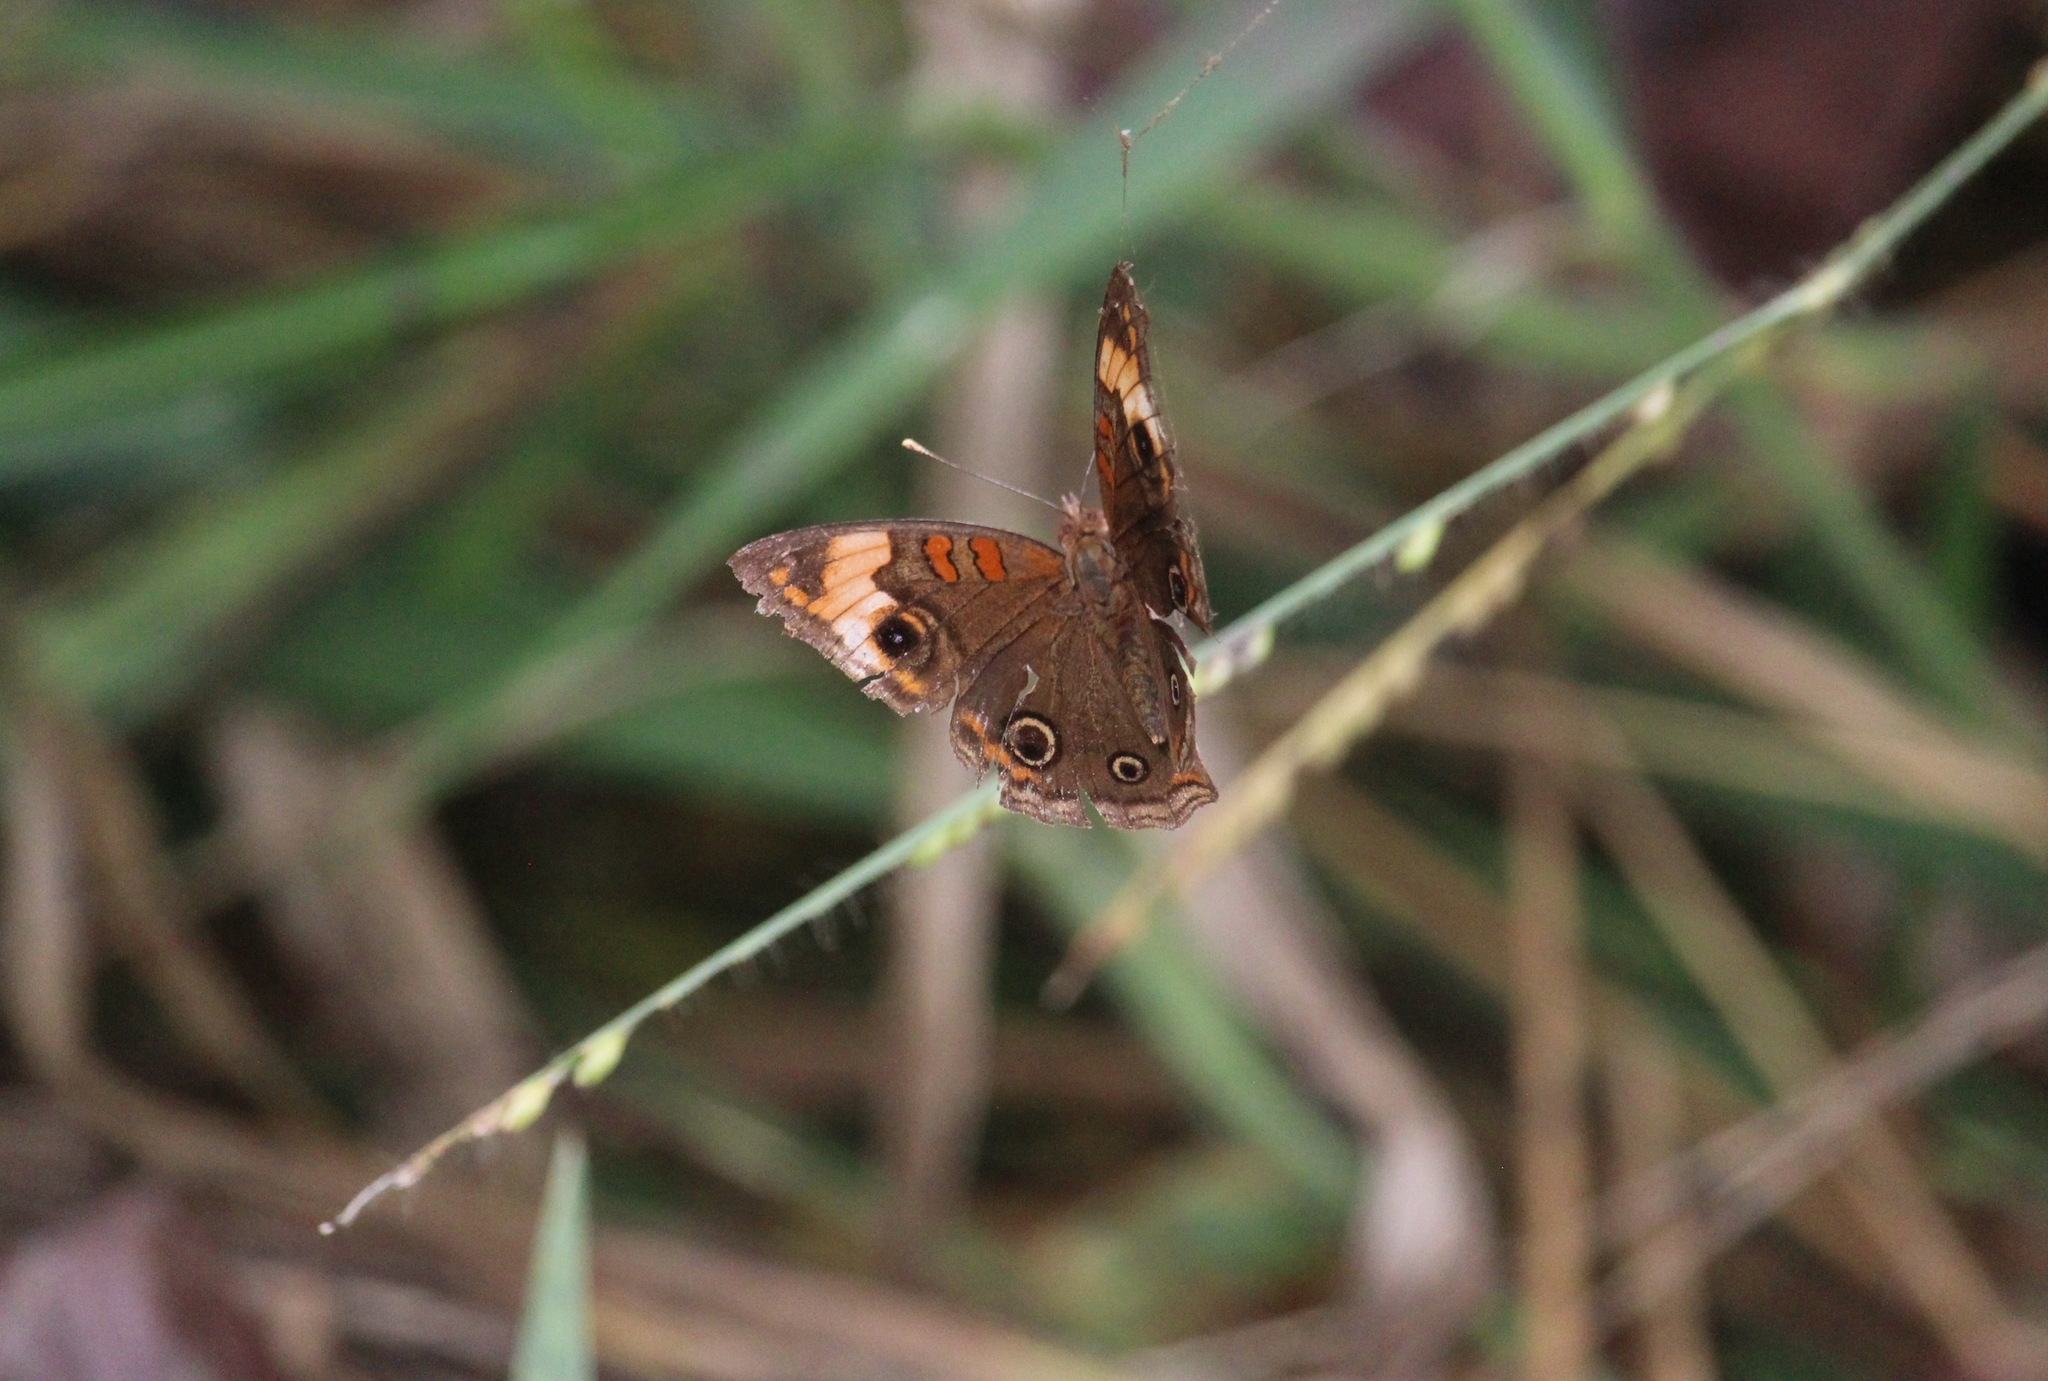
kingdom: Animalia
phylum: Arthropoda
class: Insecta
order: Lepidoptera
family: Nymphalidae
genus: Junonia
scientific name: Junonia lavinia
